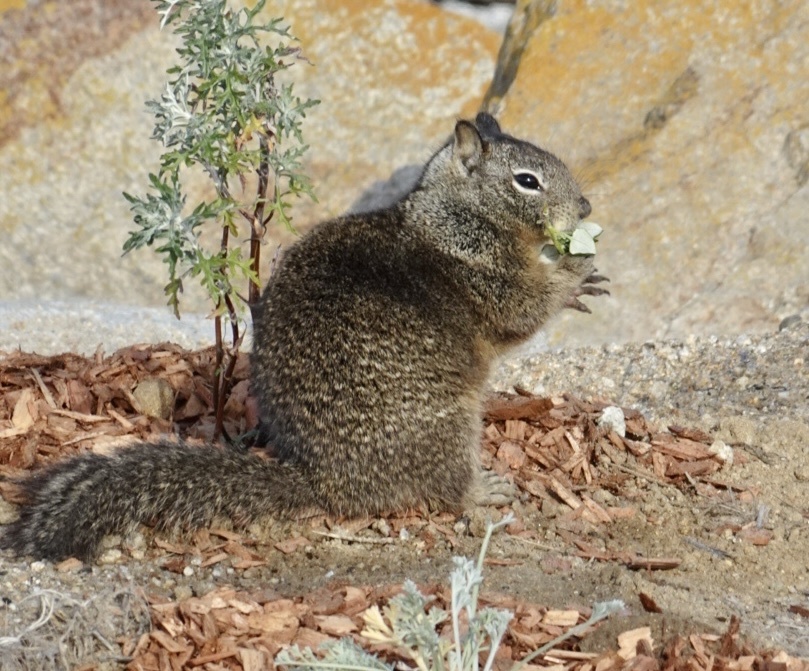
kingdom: Animalia
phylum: Chordata
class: Mammalia
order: Rodentia
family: Sciuridae
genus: Otospermophilus
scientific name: Otospermophilus beecheyi
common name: California ground squirrel
